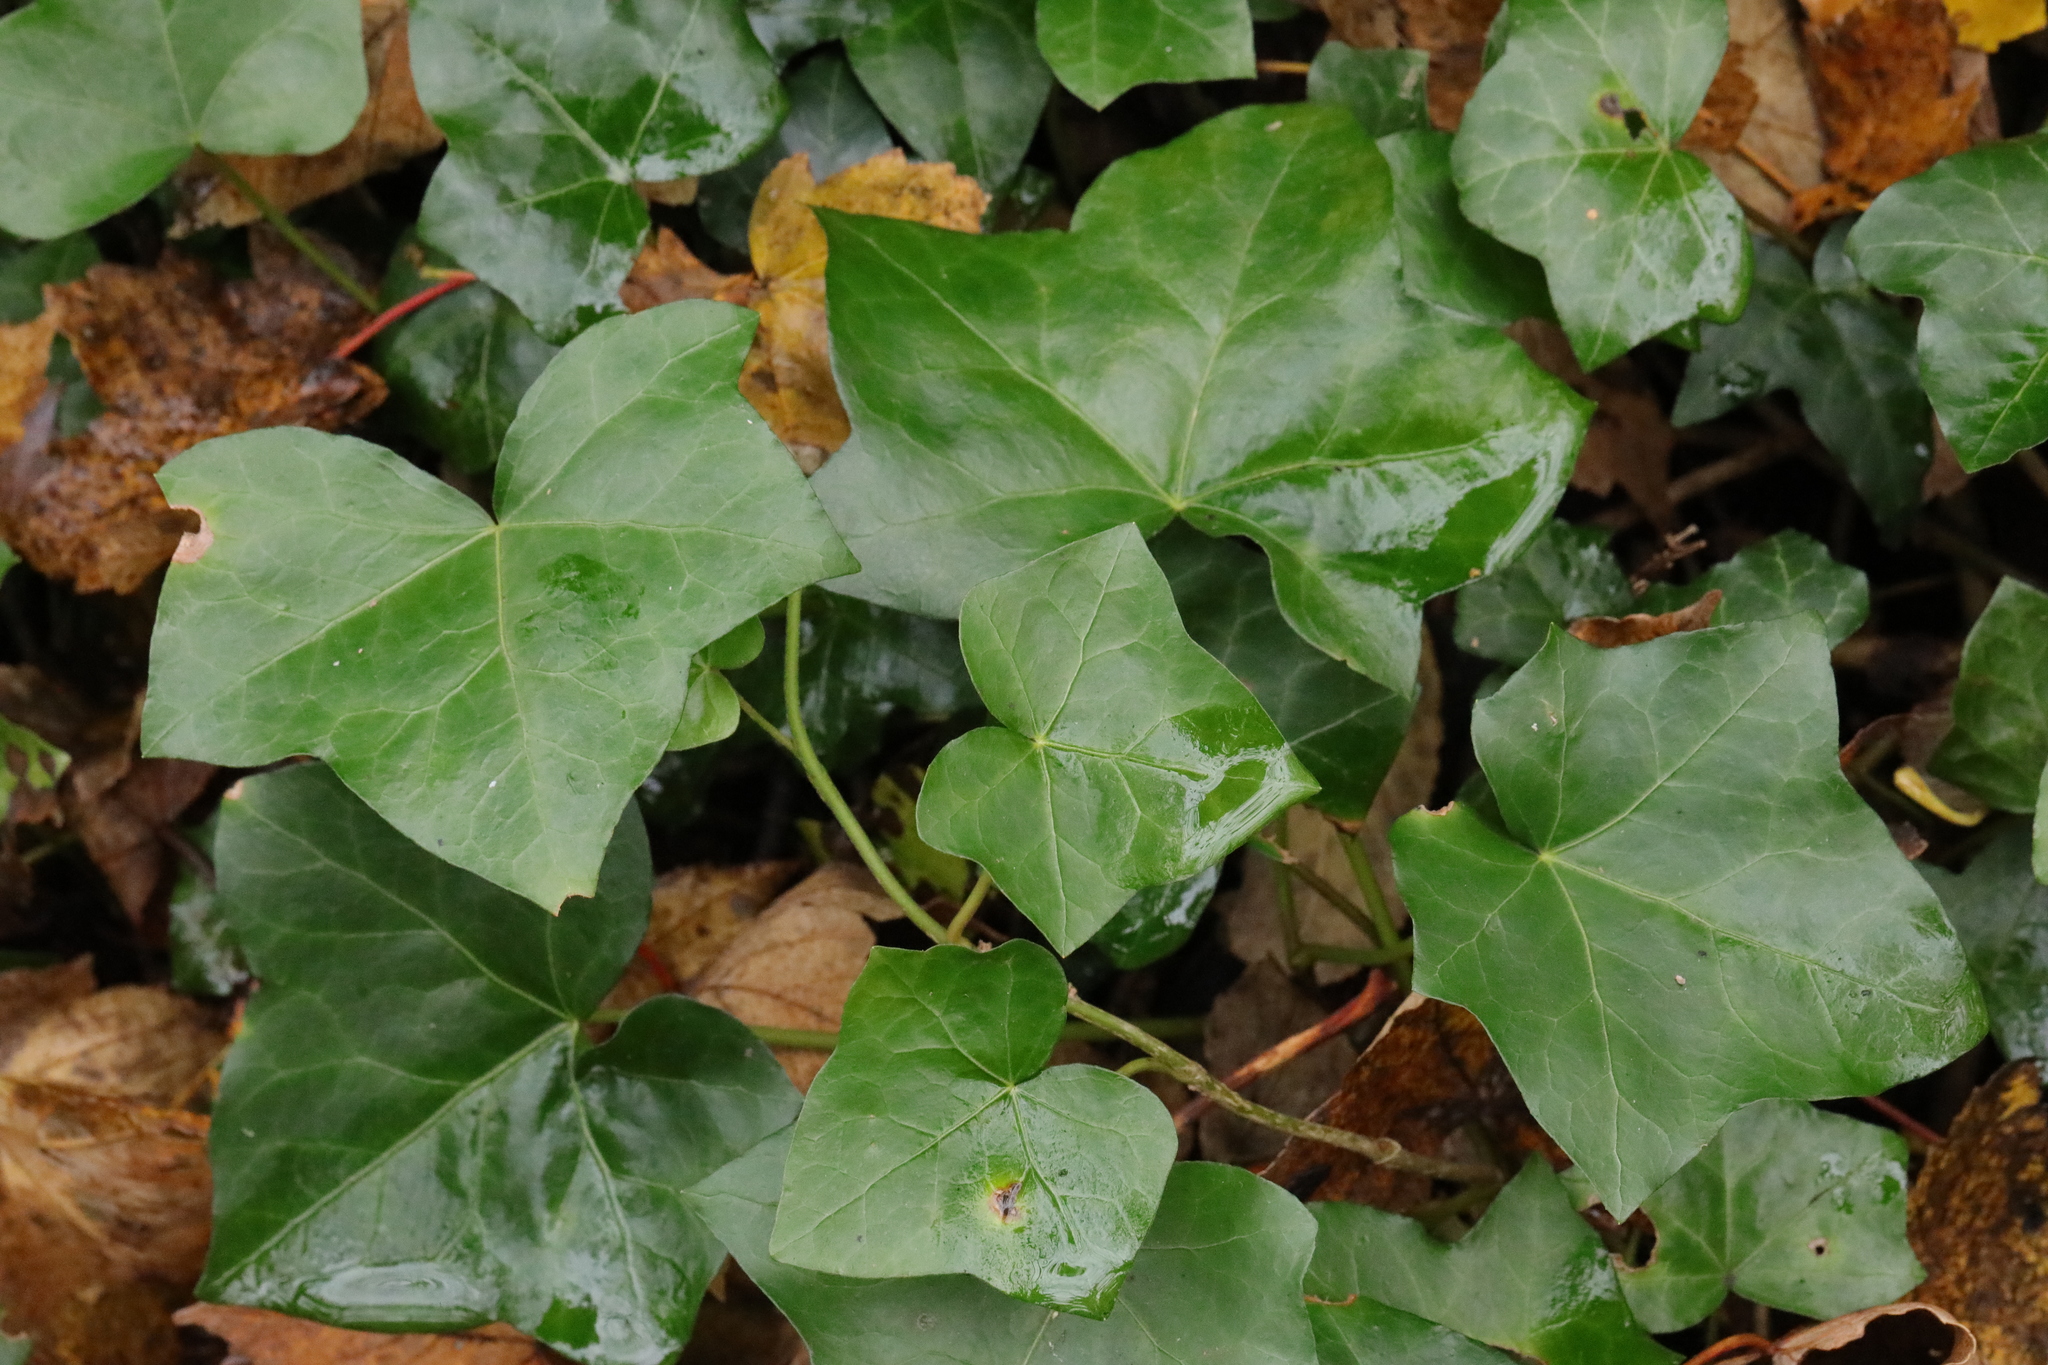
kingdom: Plantae
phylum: Tracheophyta
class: Magnoliopsida
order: Apiales
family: Araliaceae
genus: Hedera
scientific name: Hedera helix
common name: Ivy
